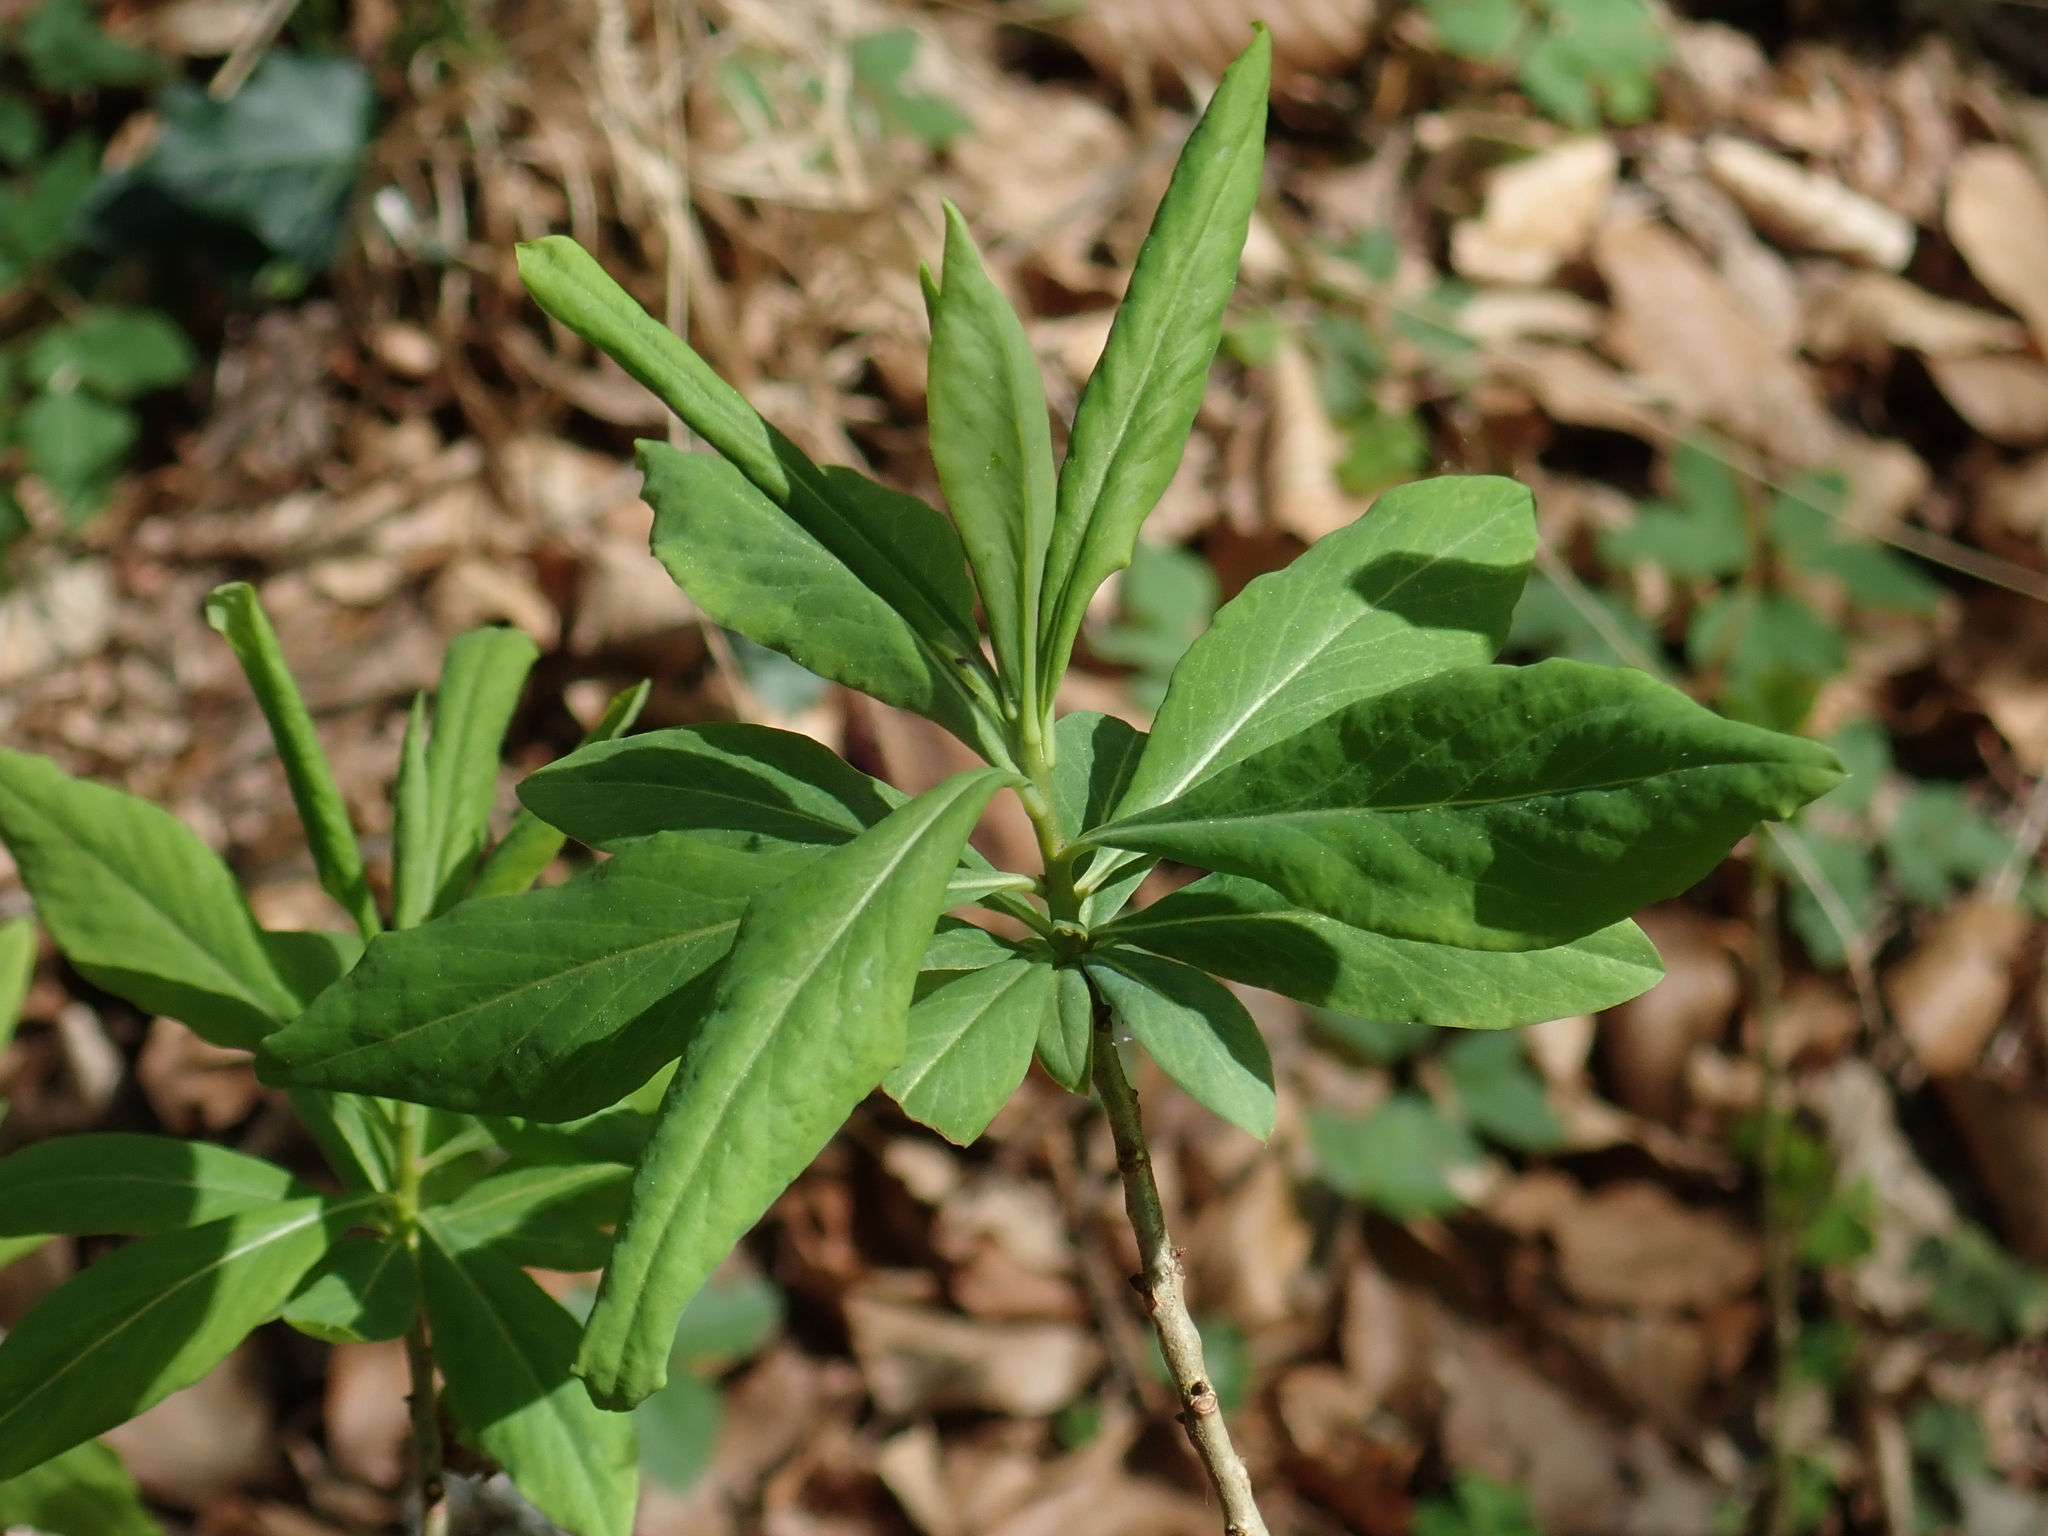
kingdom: Plantae
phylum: Tracheophyta
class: Magnoliopsida
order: Malvales
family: Thymelaeaceae
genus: Daphne
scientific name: Daphne mezereum
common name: Mezereon
